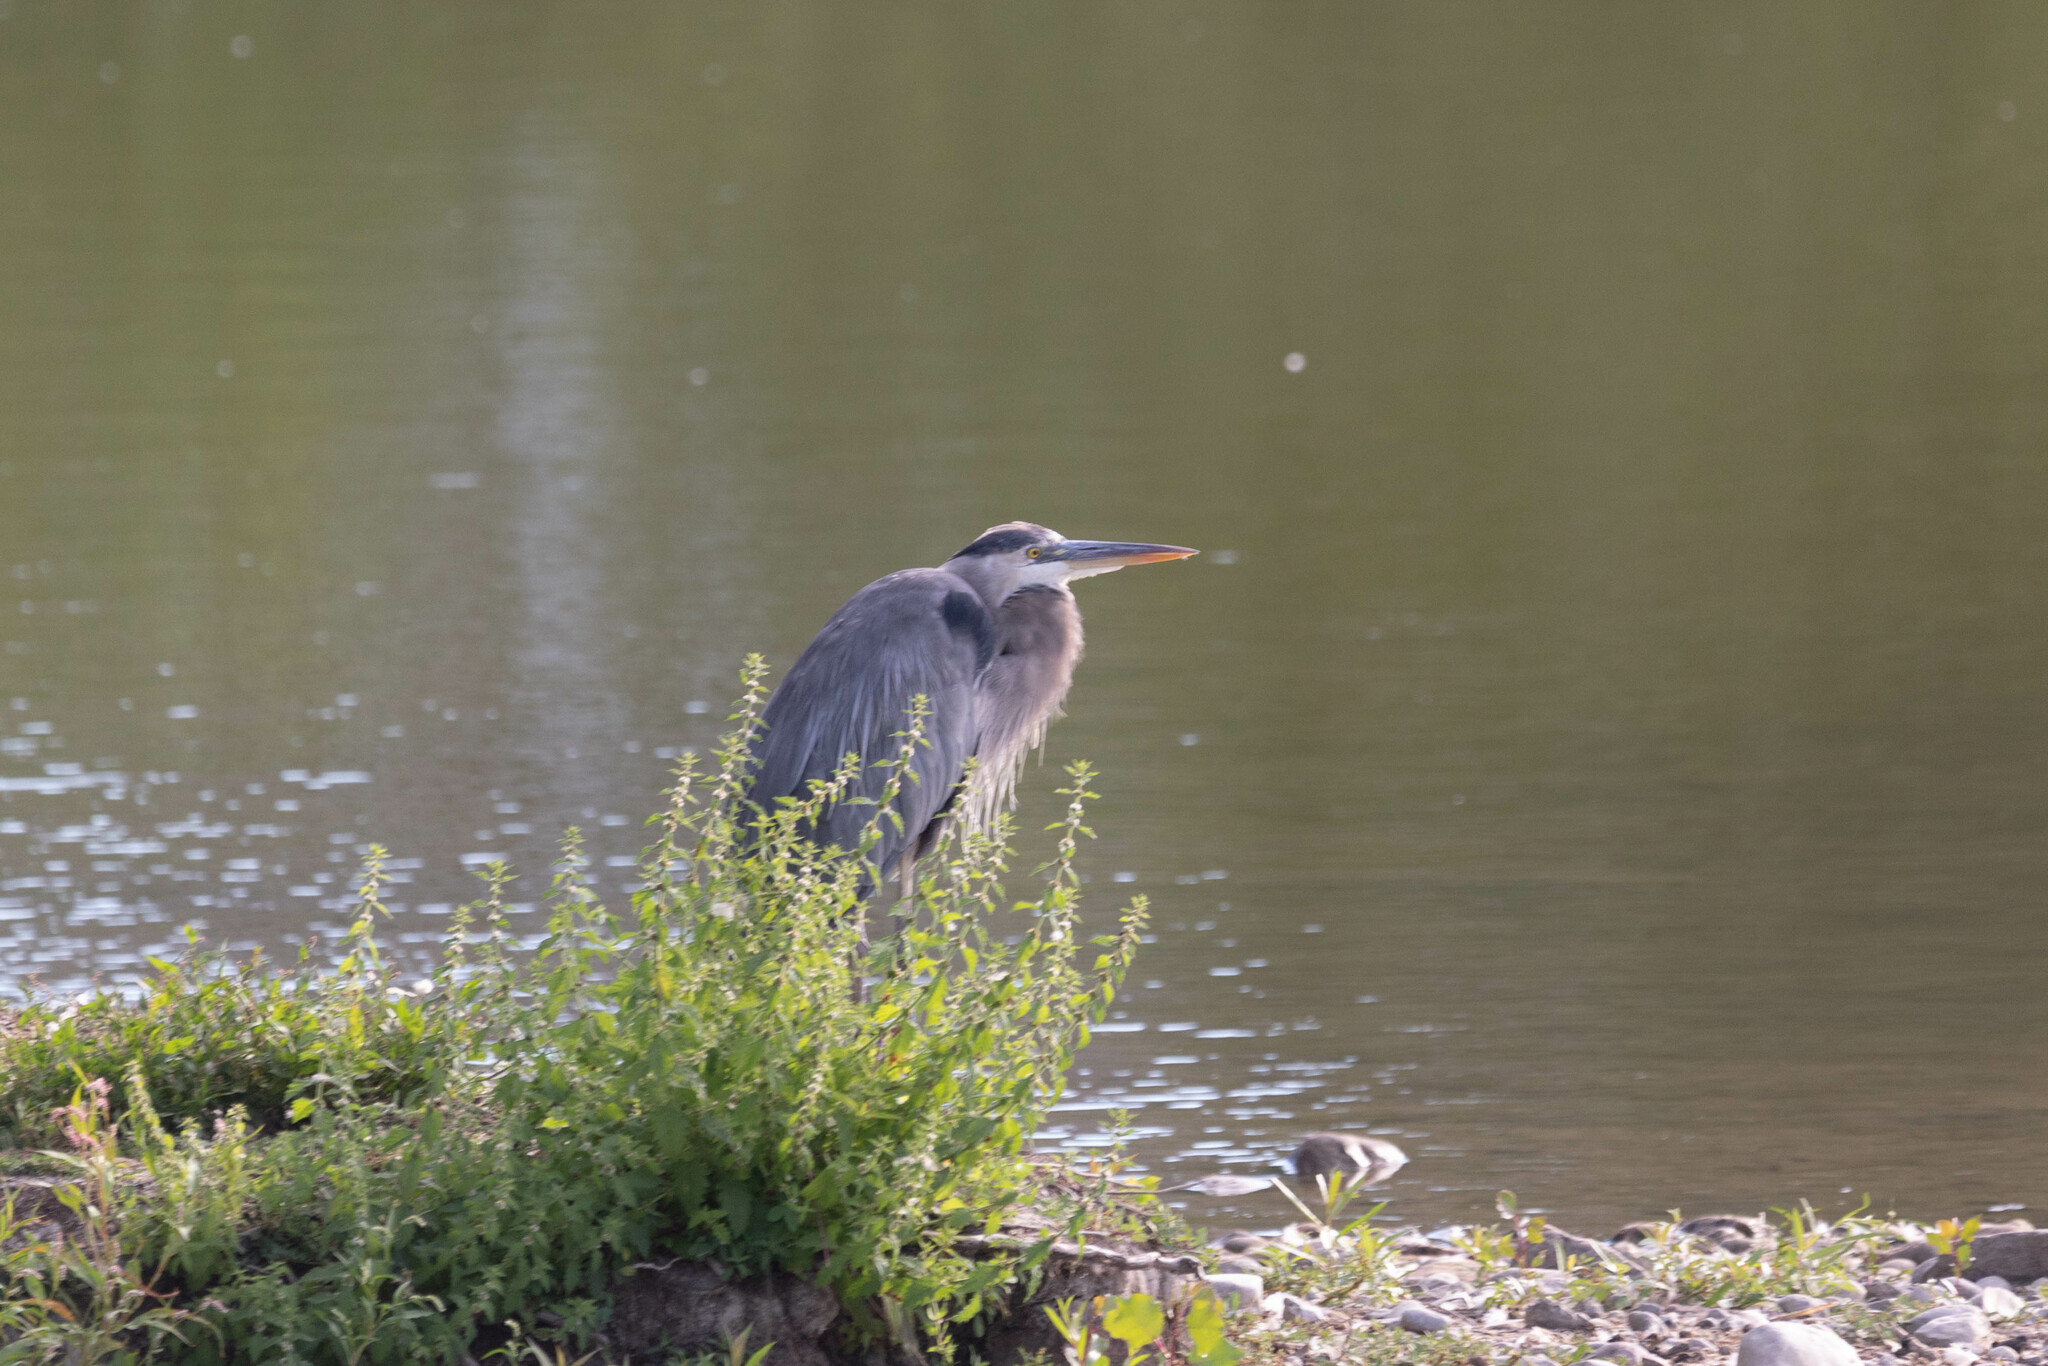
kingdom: Animalia
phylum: Chordata
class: Aves
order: Pelecaniformes
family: Ardeidae
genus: Ardea
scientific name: Ardea herodias
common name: Great blue heron
